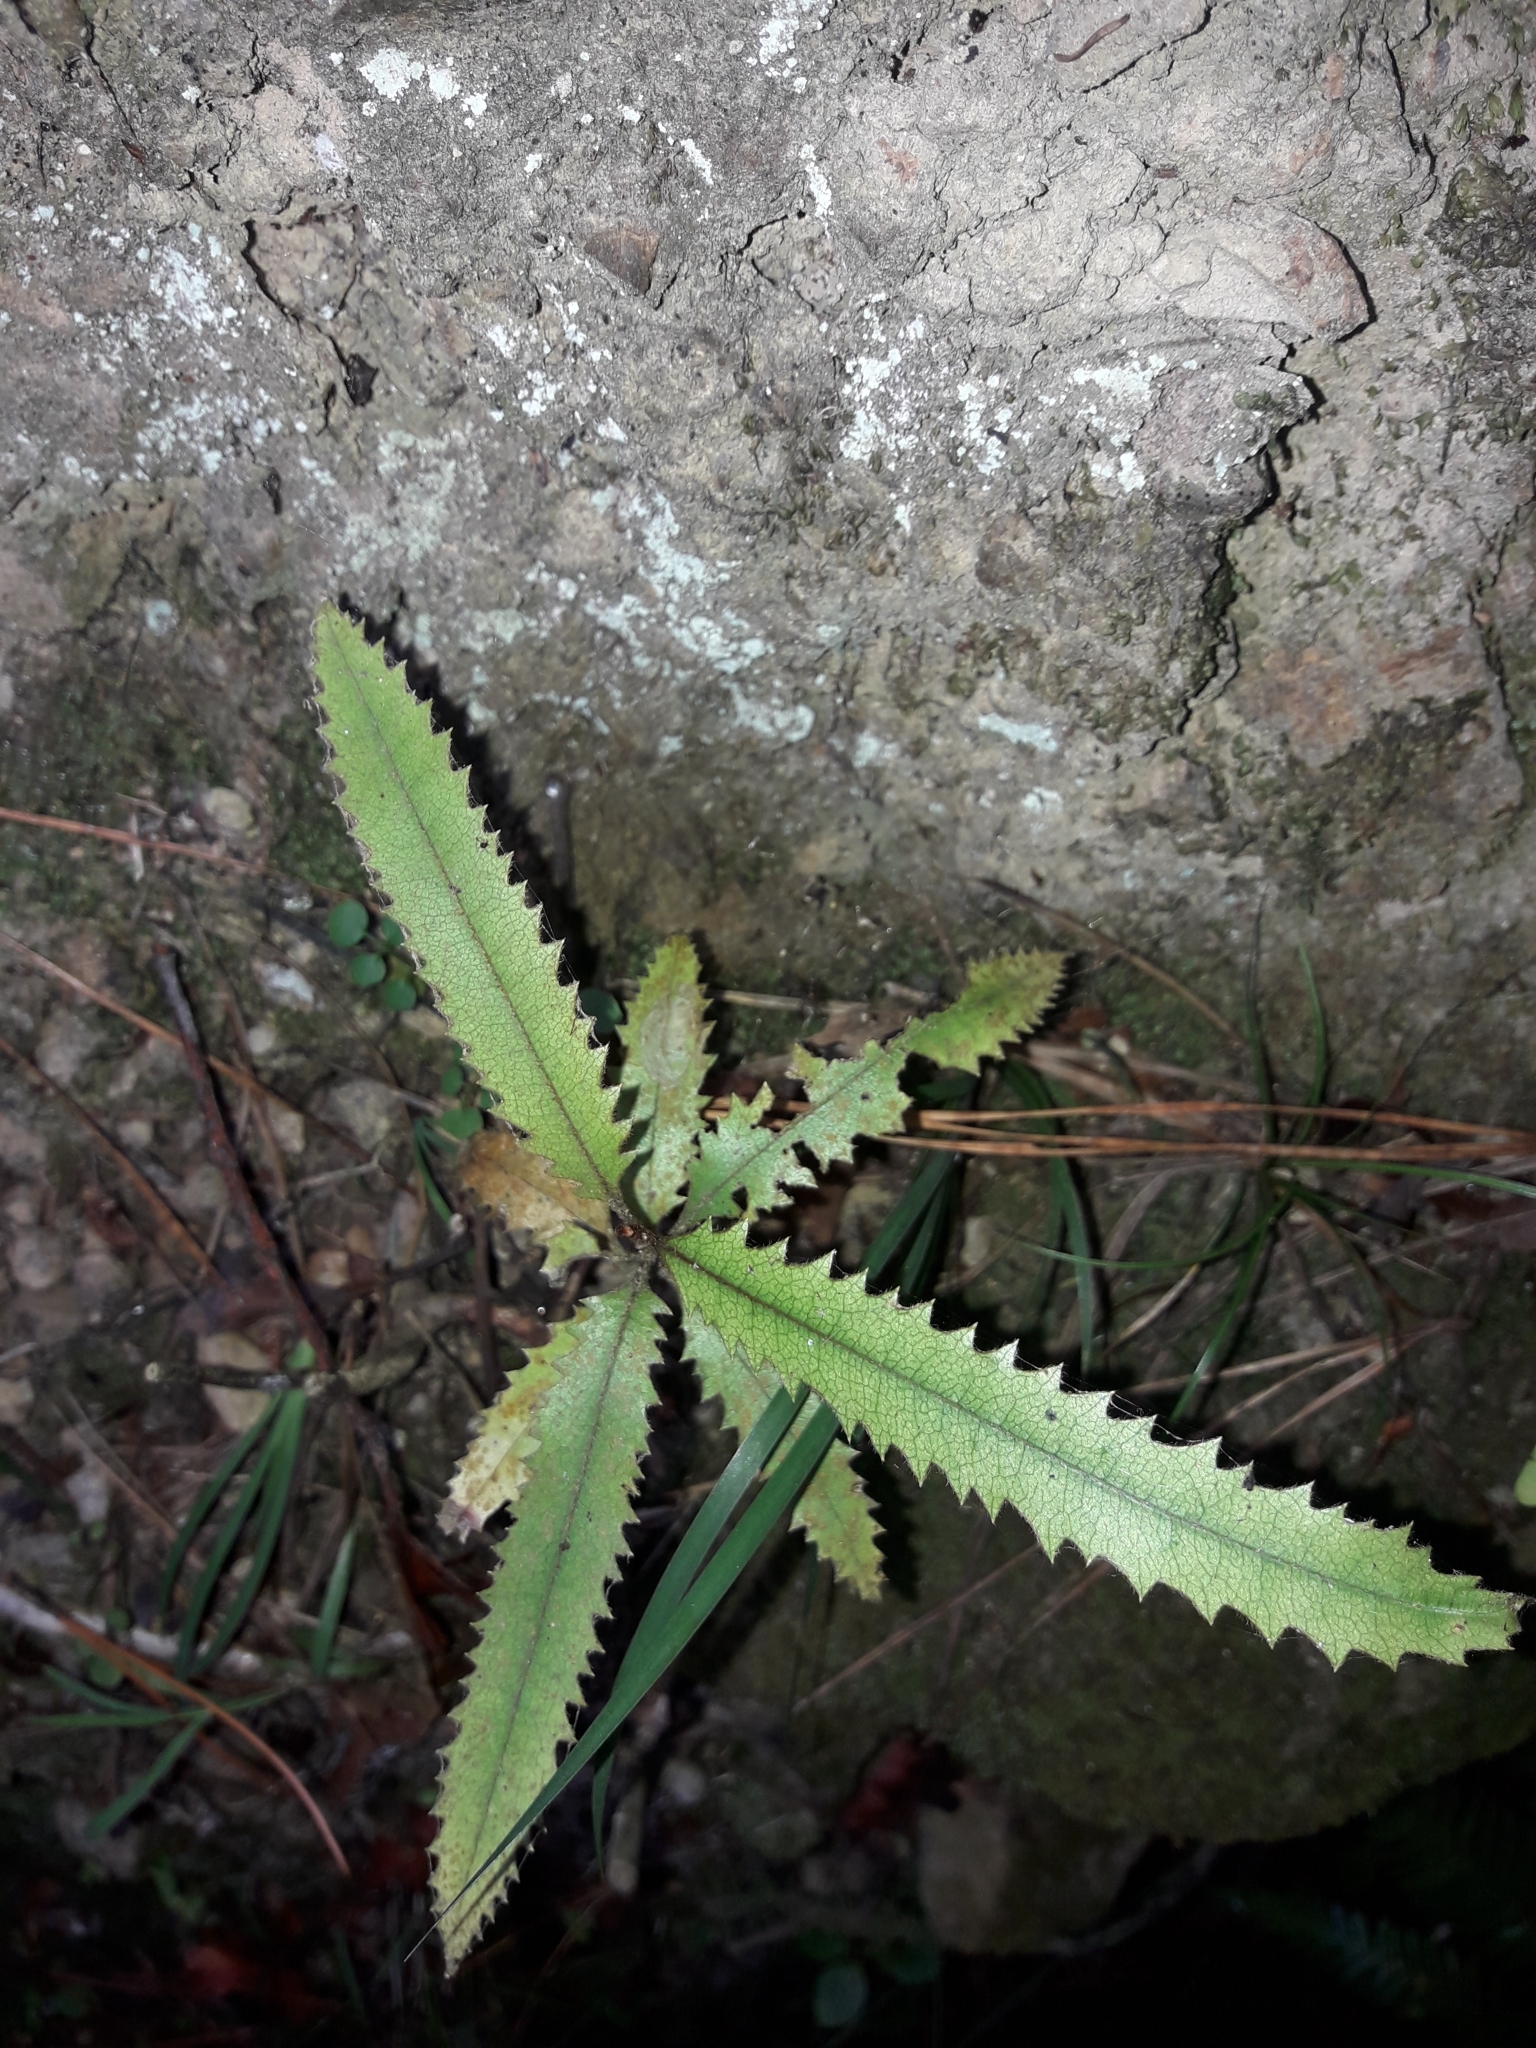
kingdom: Plantae
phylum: Tracheophyta
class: Magnoliopsida
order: Proteales
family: Proteaceae
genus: Knightia
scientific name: Knightia excelsa
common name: New zealand-honeysuckle
